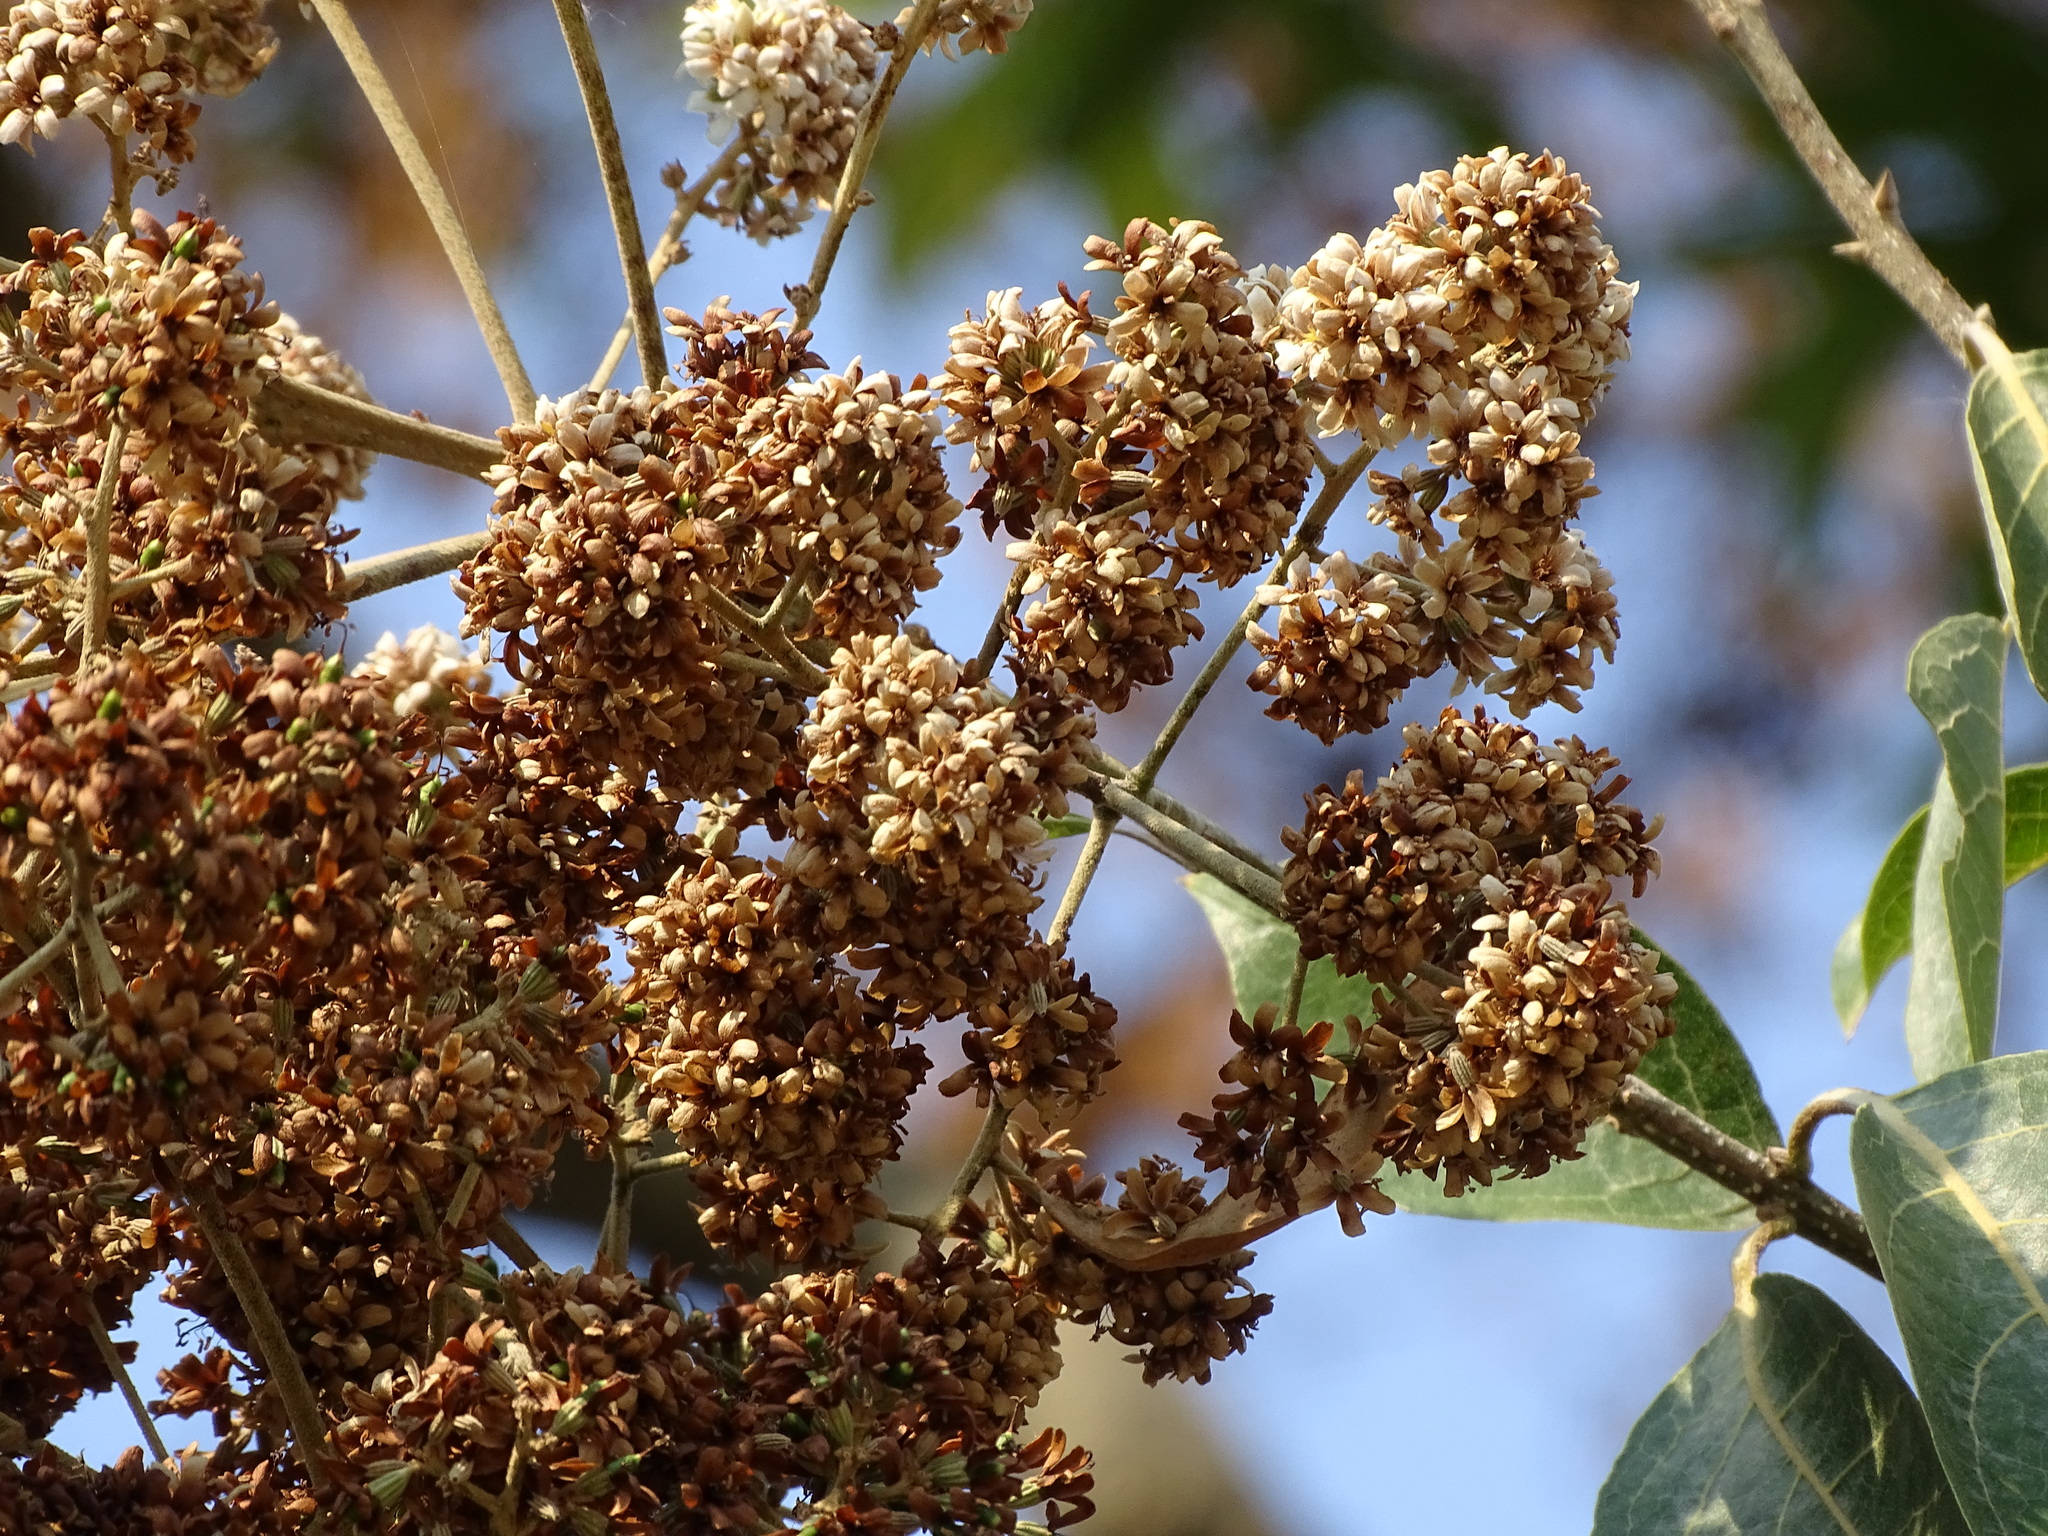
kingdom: Plantae
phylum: Tracheophyta
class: Magnoliopsida
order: Boraginales
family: Cordiaceae
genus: Cordia
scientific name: Cordia alliodora
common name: Spanish elm
